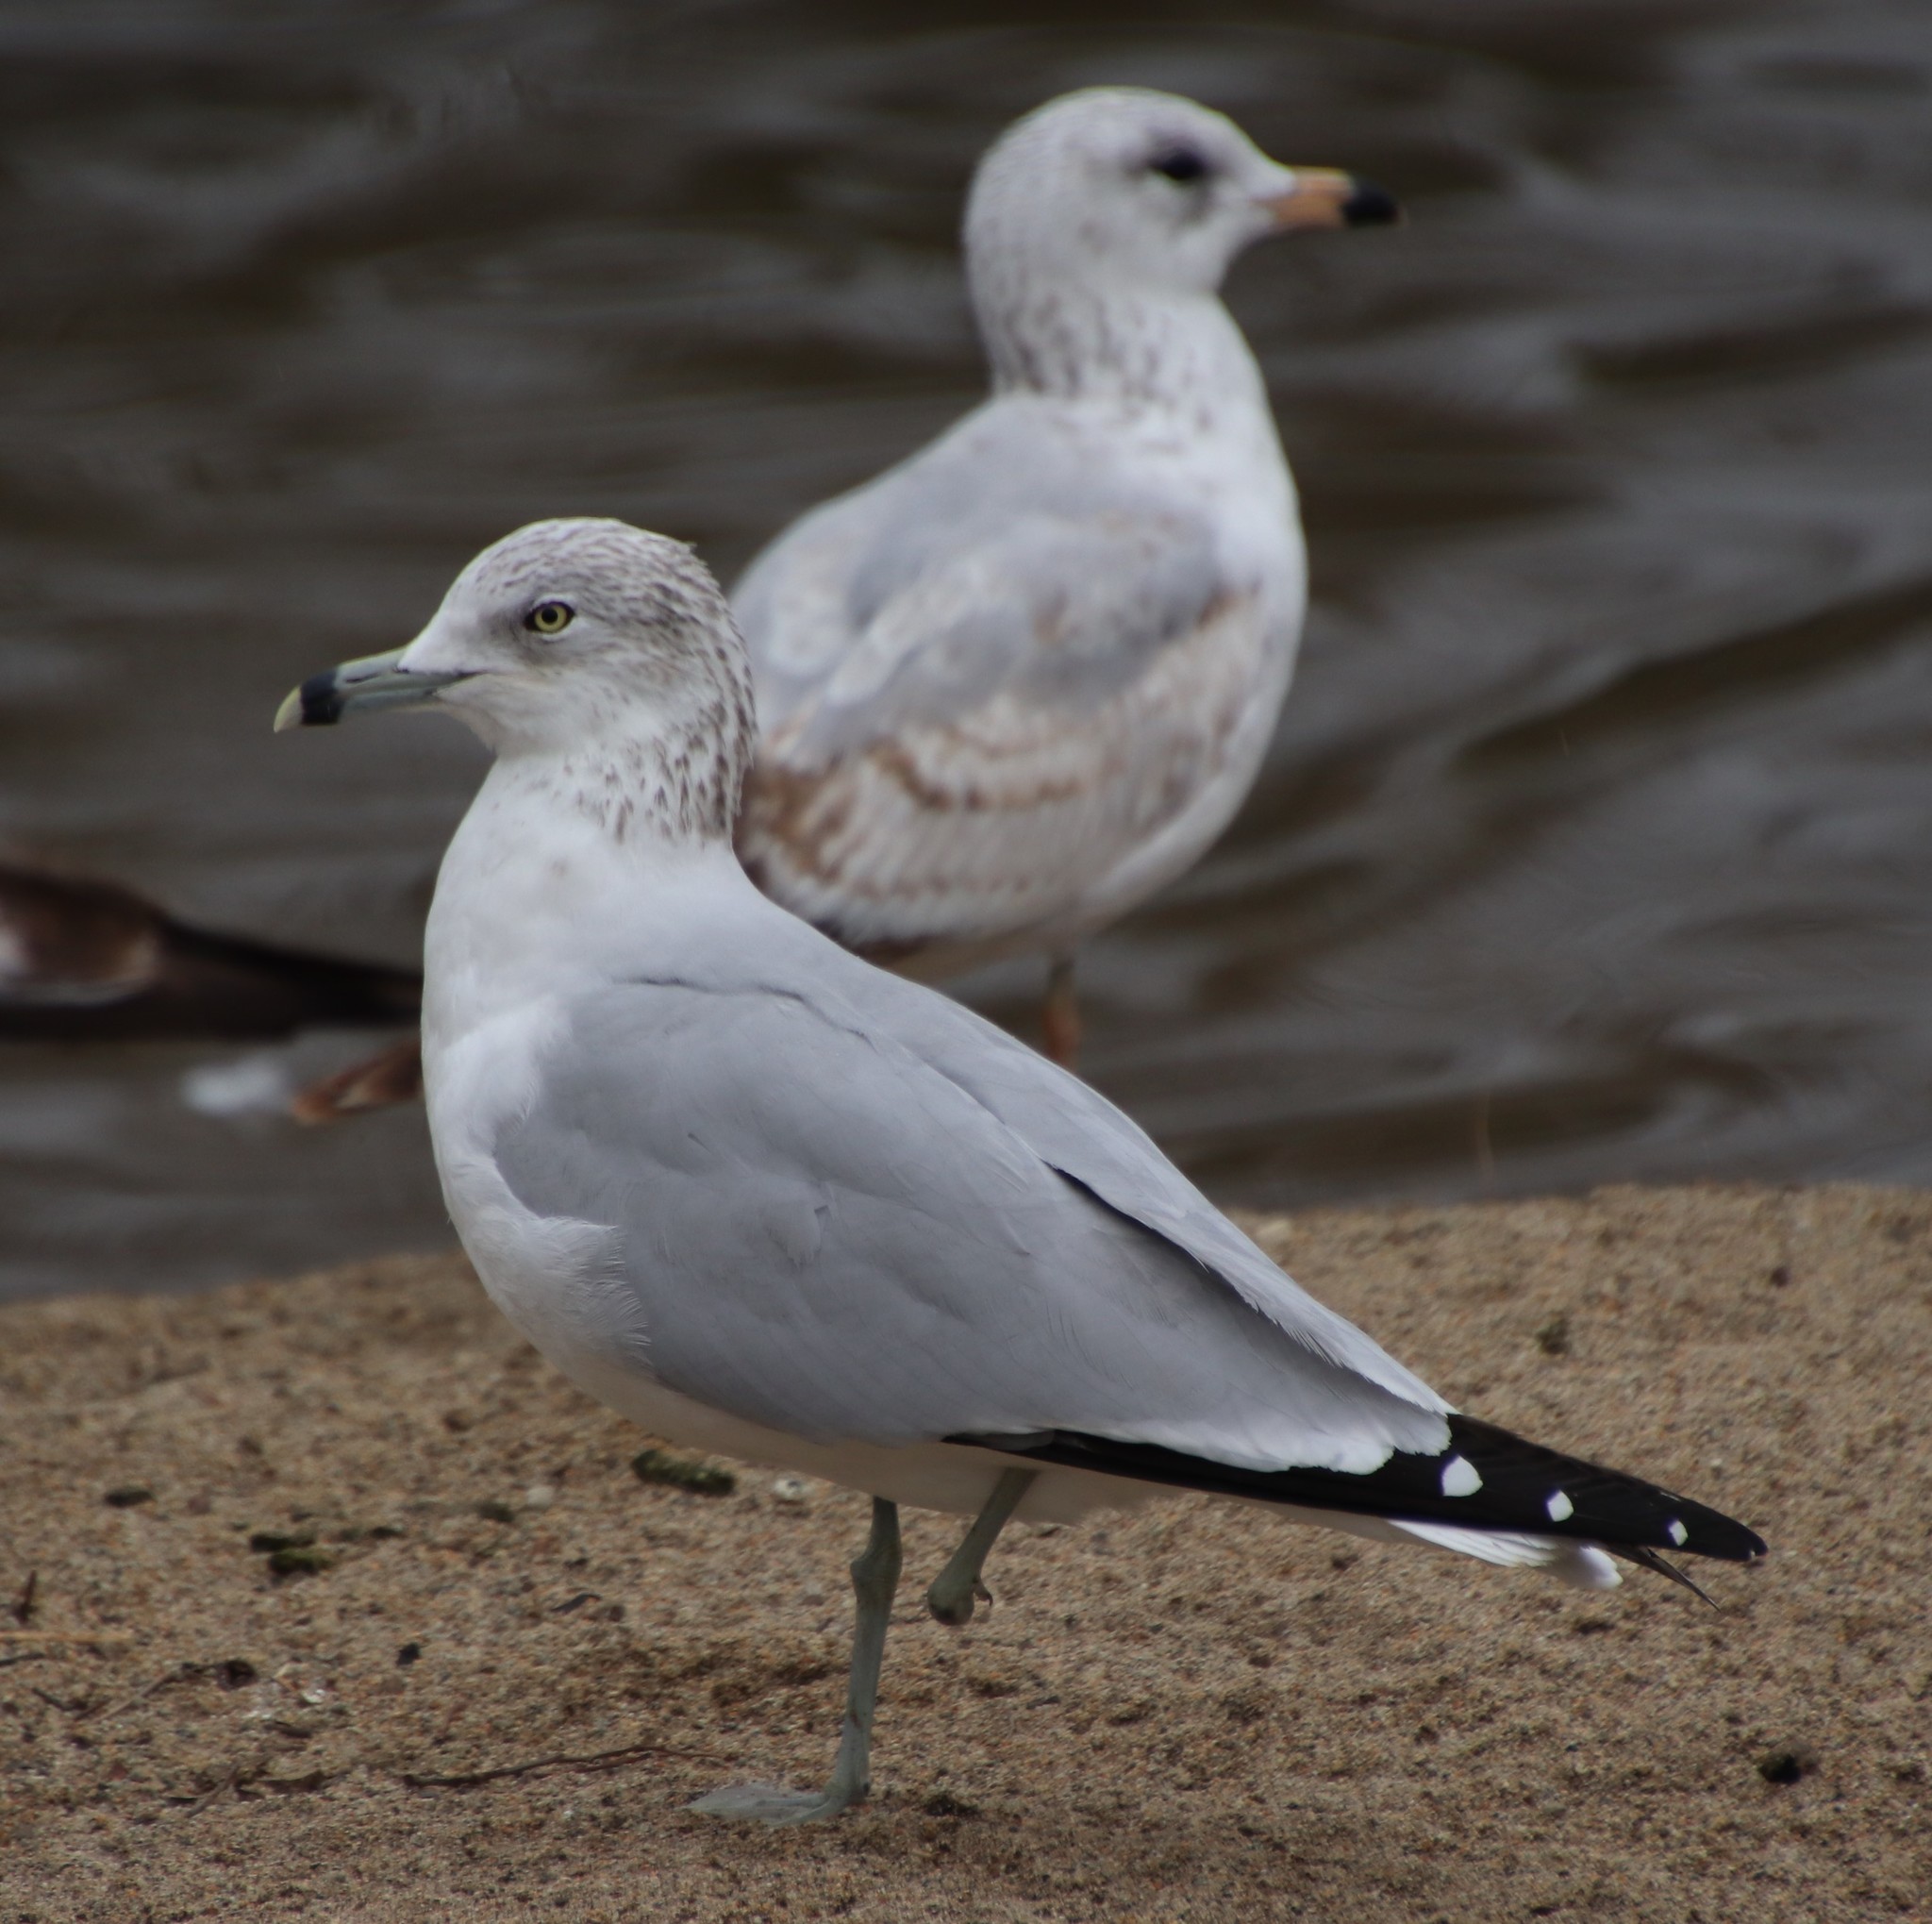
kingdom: Animalia
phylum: Chordata
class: Aves
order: Charadriiformes
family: Laridae
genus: Larus
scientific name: Larus delawarensis
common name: Ring-billed gull
